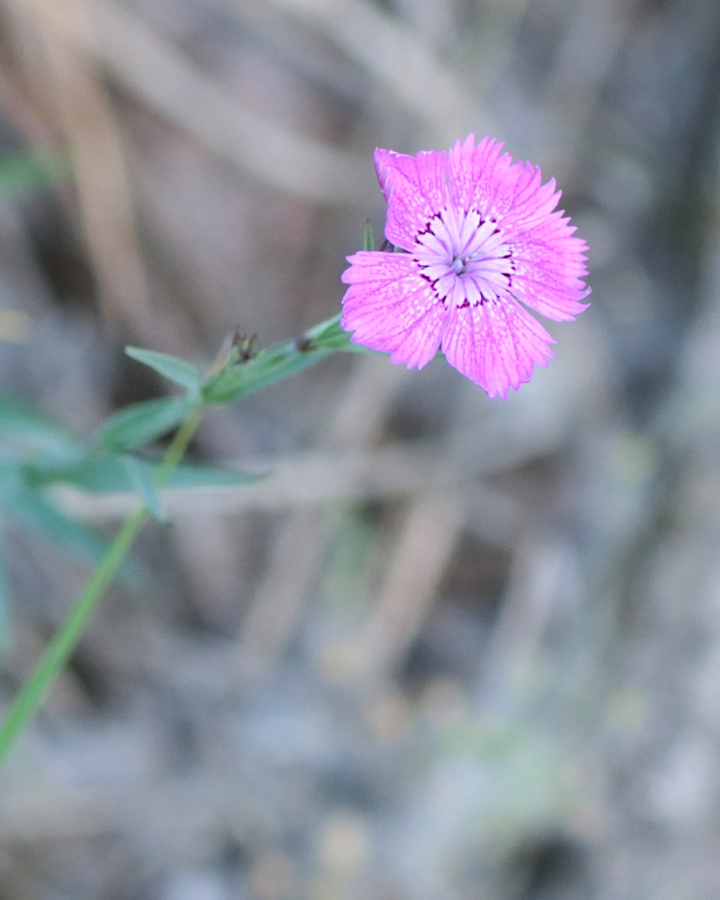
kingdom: Plantae
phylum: Tracheophyta
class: Magnoliopsida
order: Caryophyllales
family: Caryophyllaceae
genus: Dianthus
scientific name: Dianthus chinensis
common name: Rainbow pink
